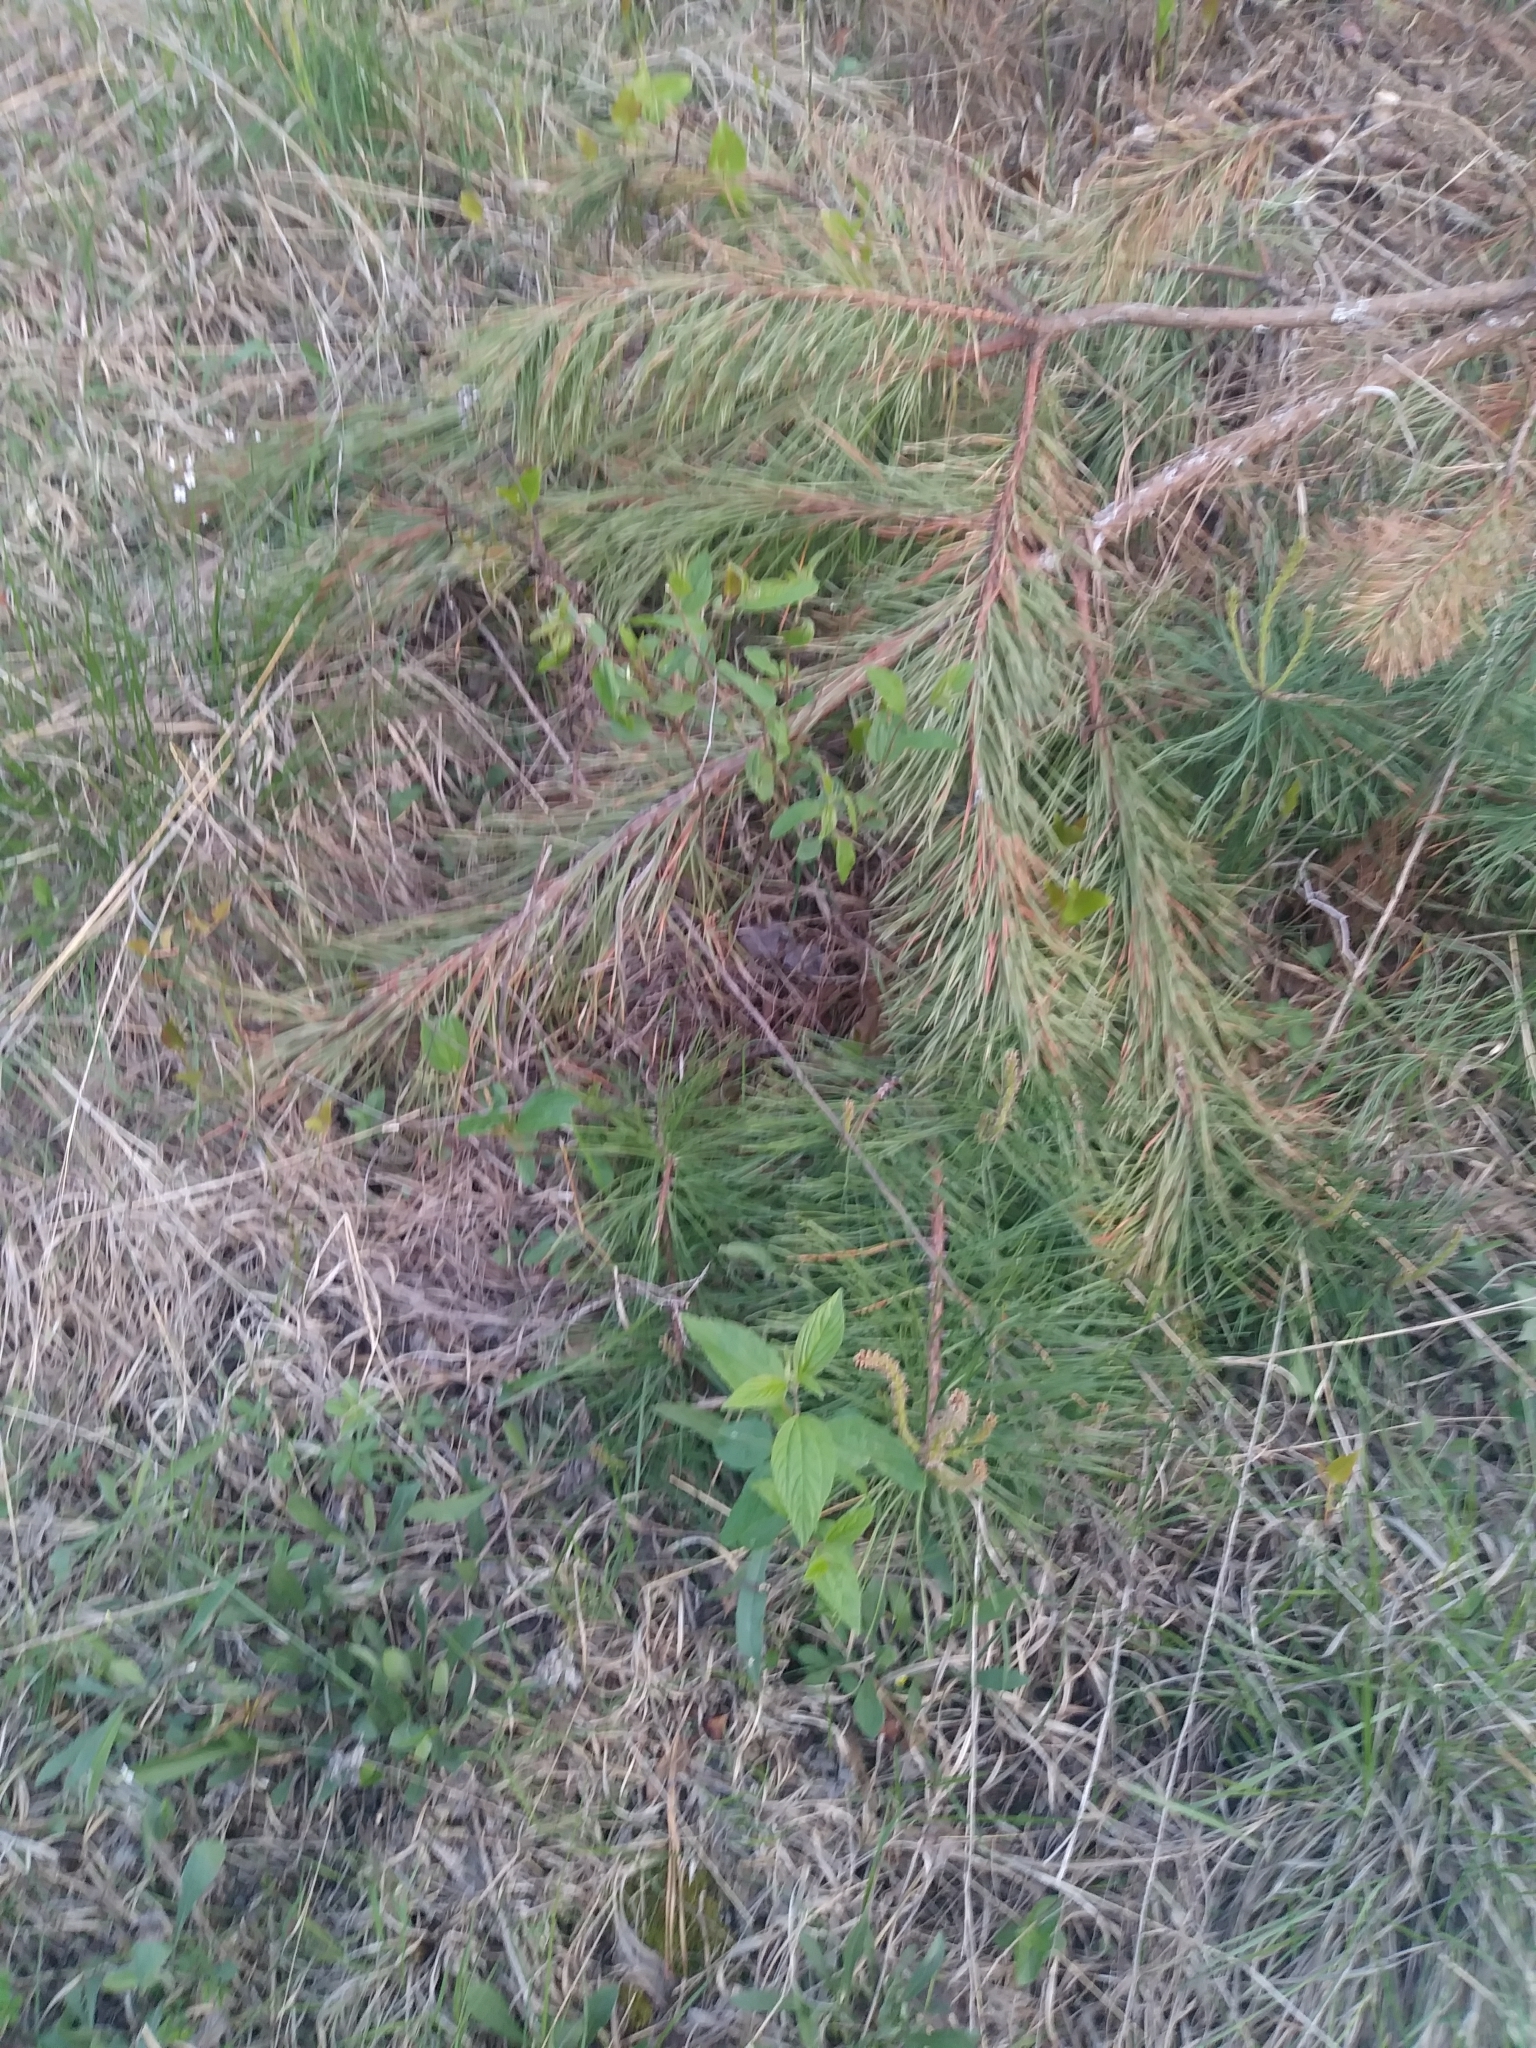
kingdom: Plantae
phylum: Tracheophyta
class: Magnoliopsida
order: Rosales
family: Rhamnaceae
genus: Ceanothus
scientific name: Ceanothus americanus
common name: Redroot
